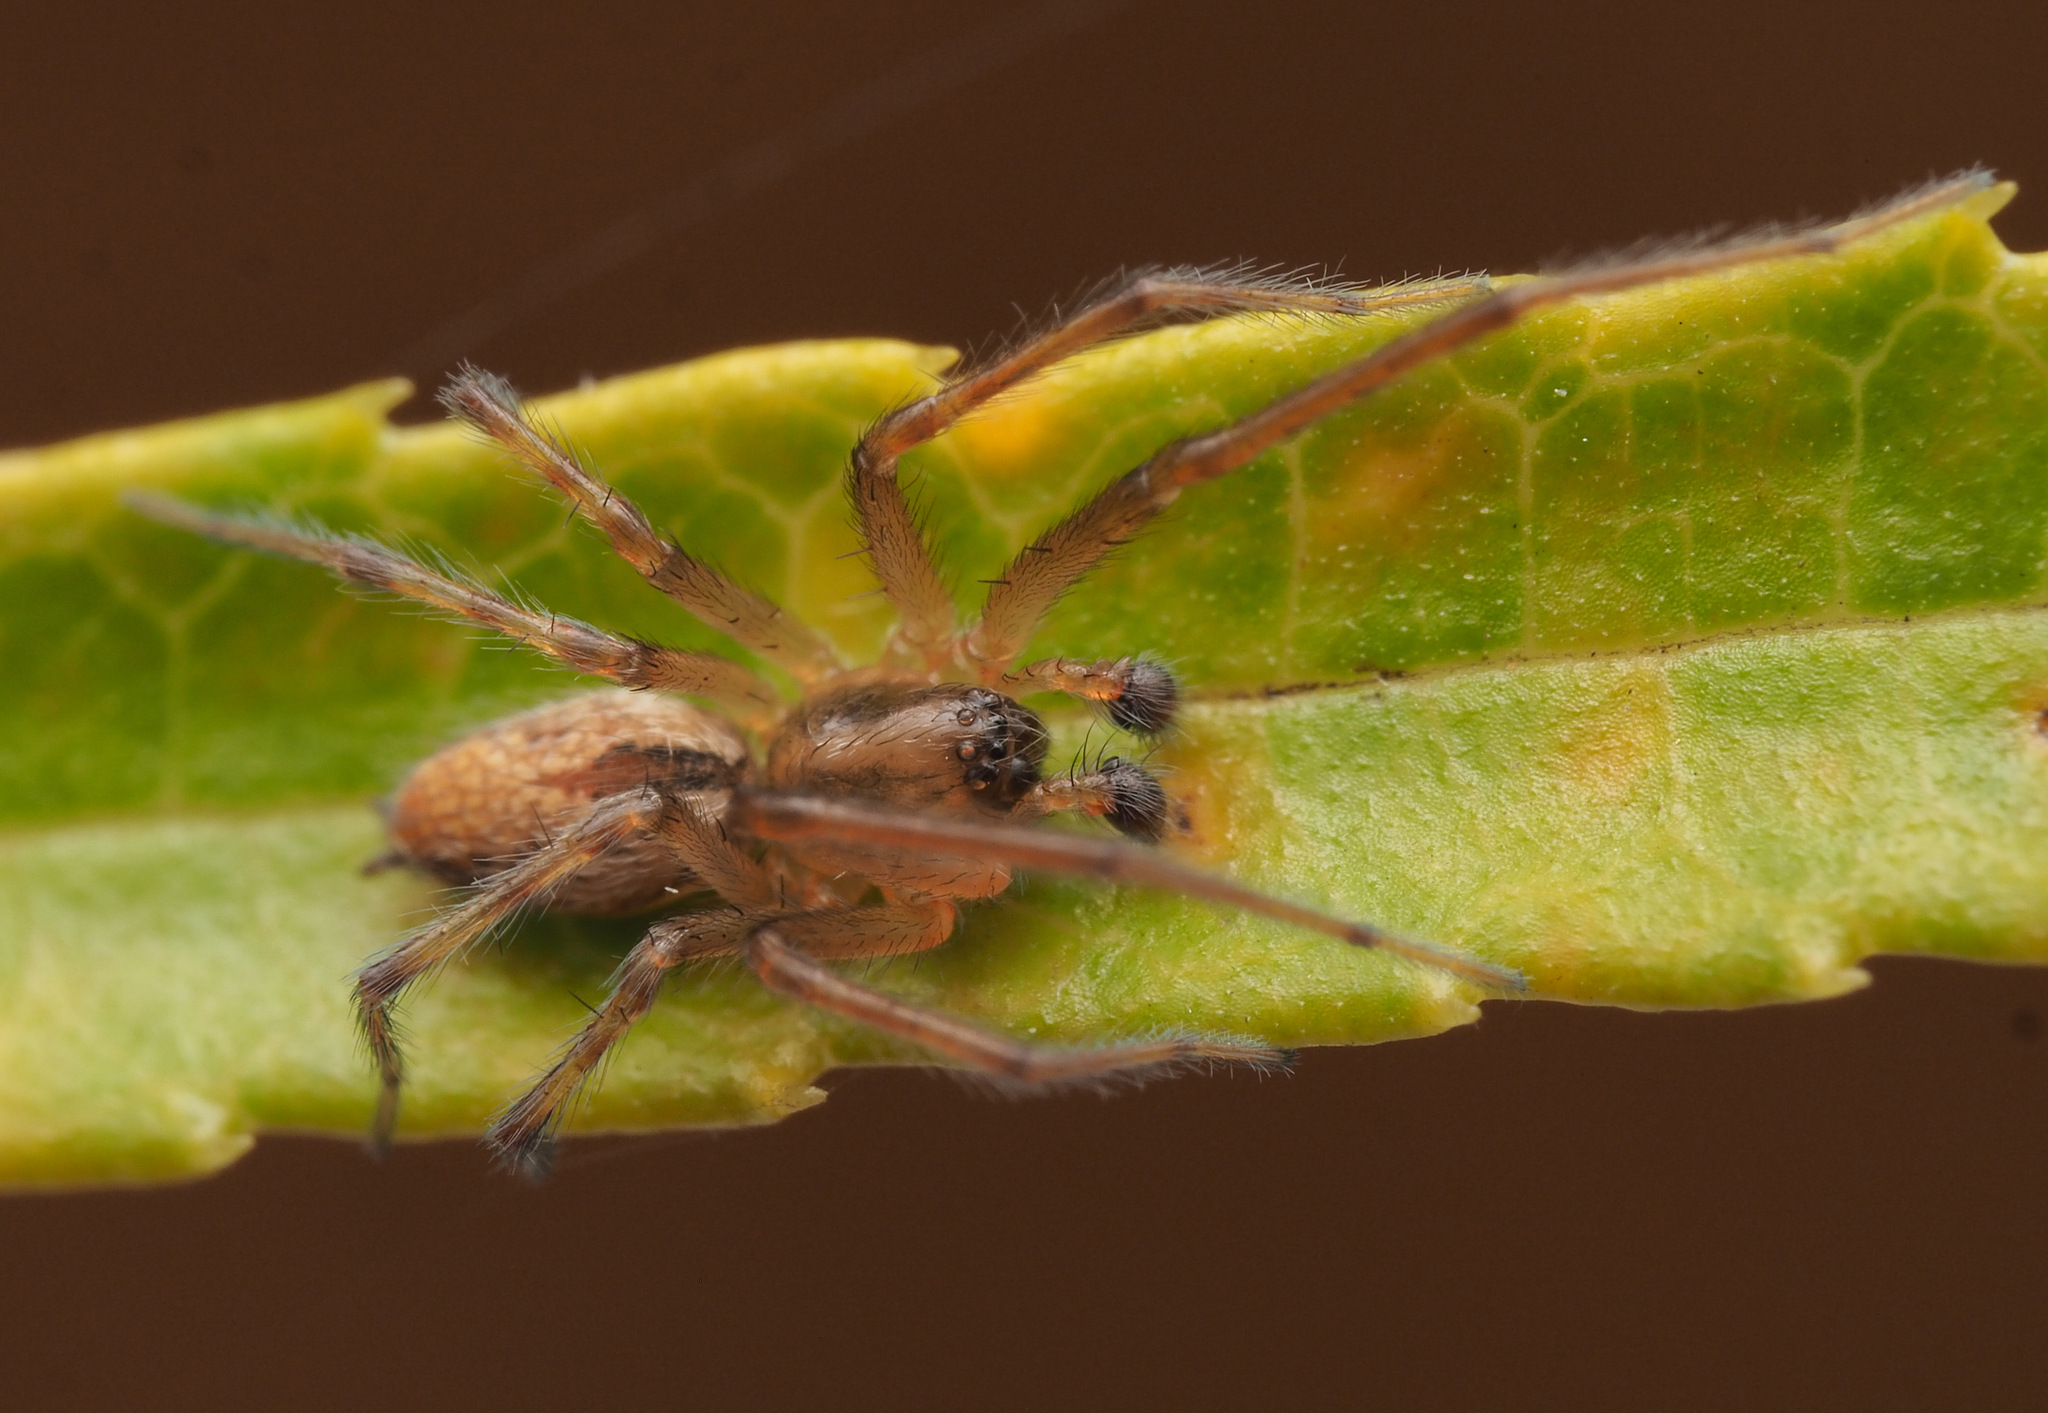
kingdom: Animalia
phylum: Arthropoda
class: Arachnida
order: Araneae
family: Desidae
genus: Badumna
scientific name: Badumna
